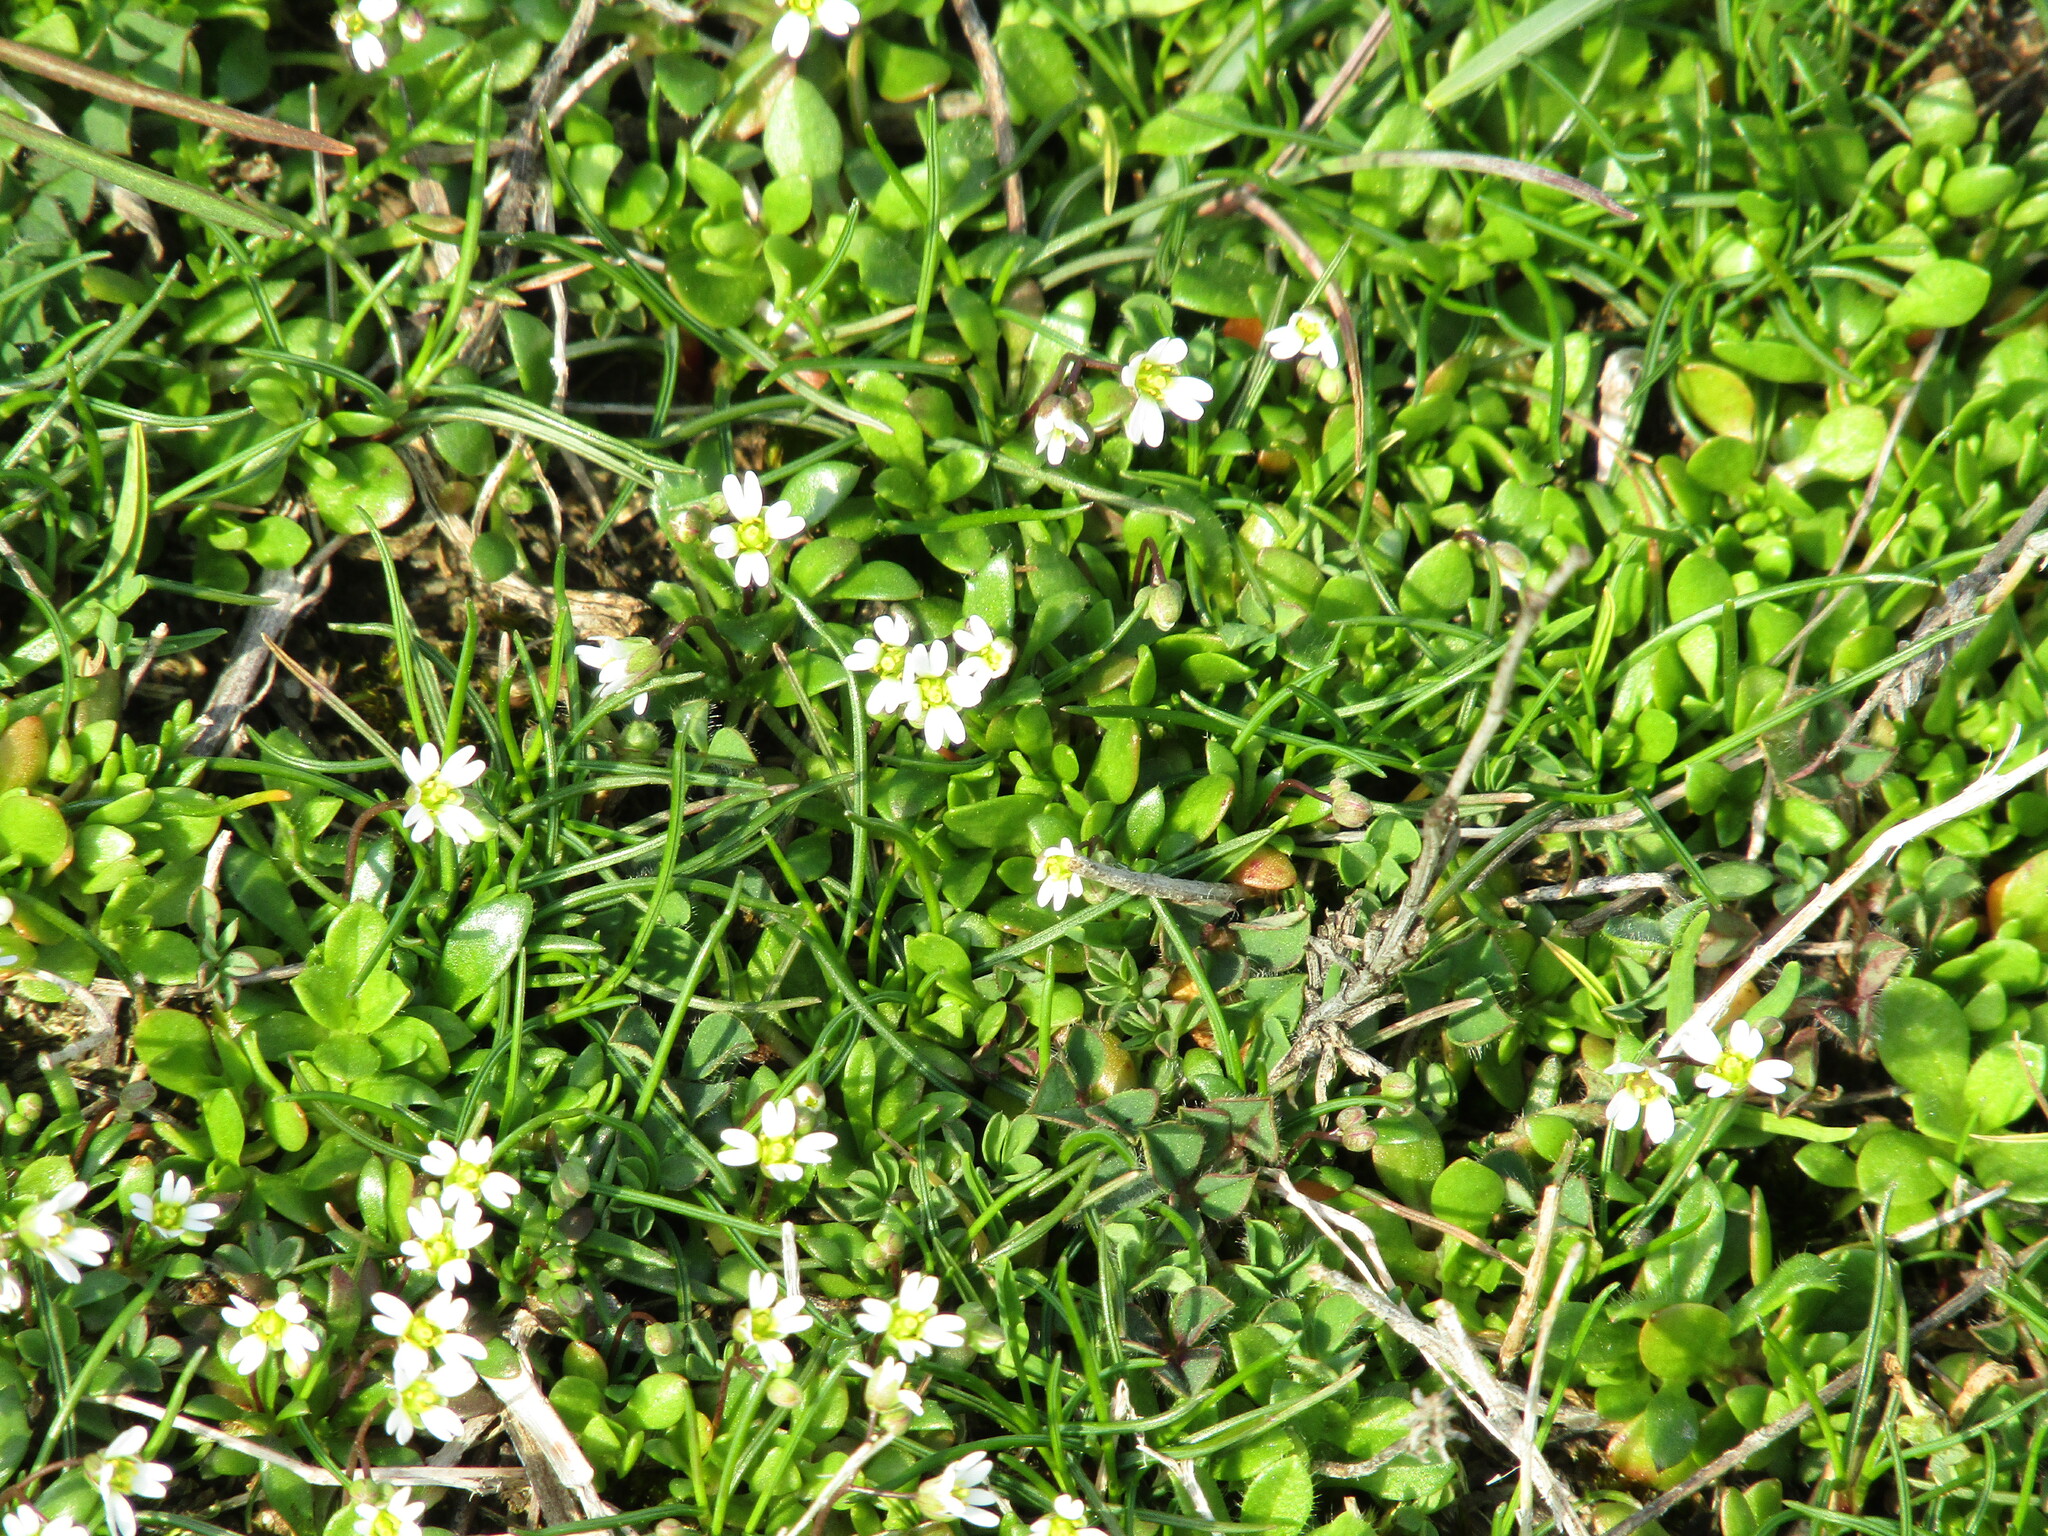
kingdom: Plantae
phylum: Tracheophyta
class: Magnoliopsida
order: Brassicales
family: Brassicaceae
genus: Draba
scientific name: Draba verna
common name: Spring draba
